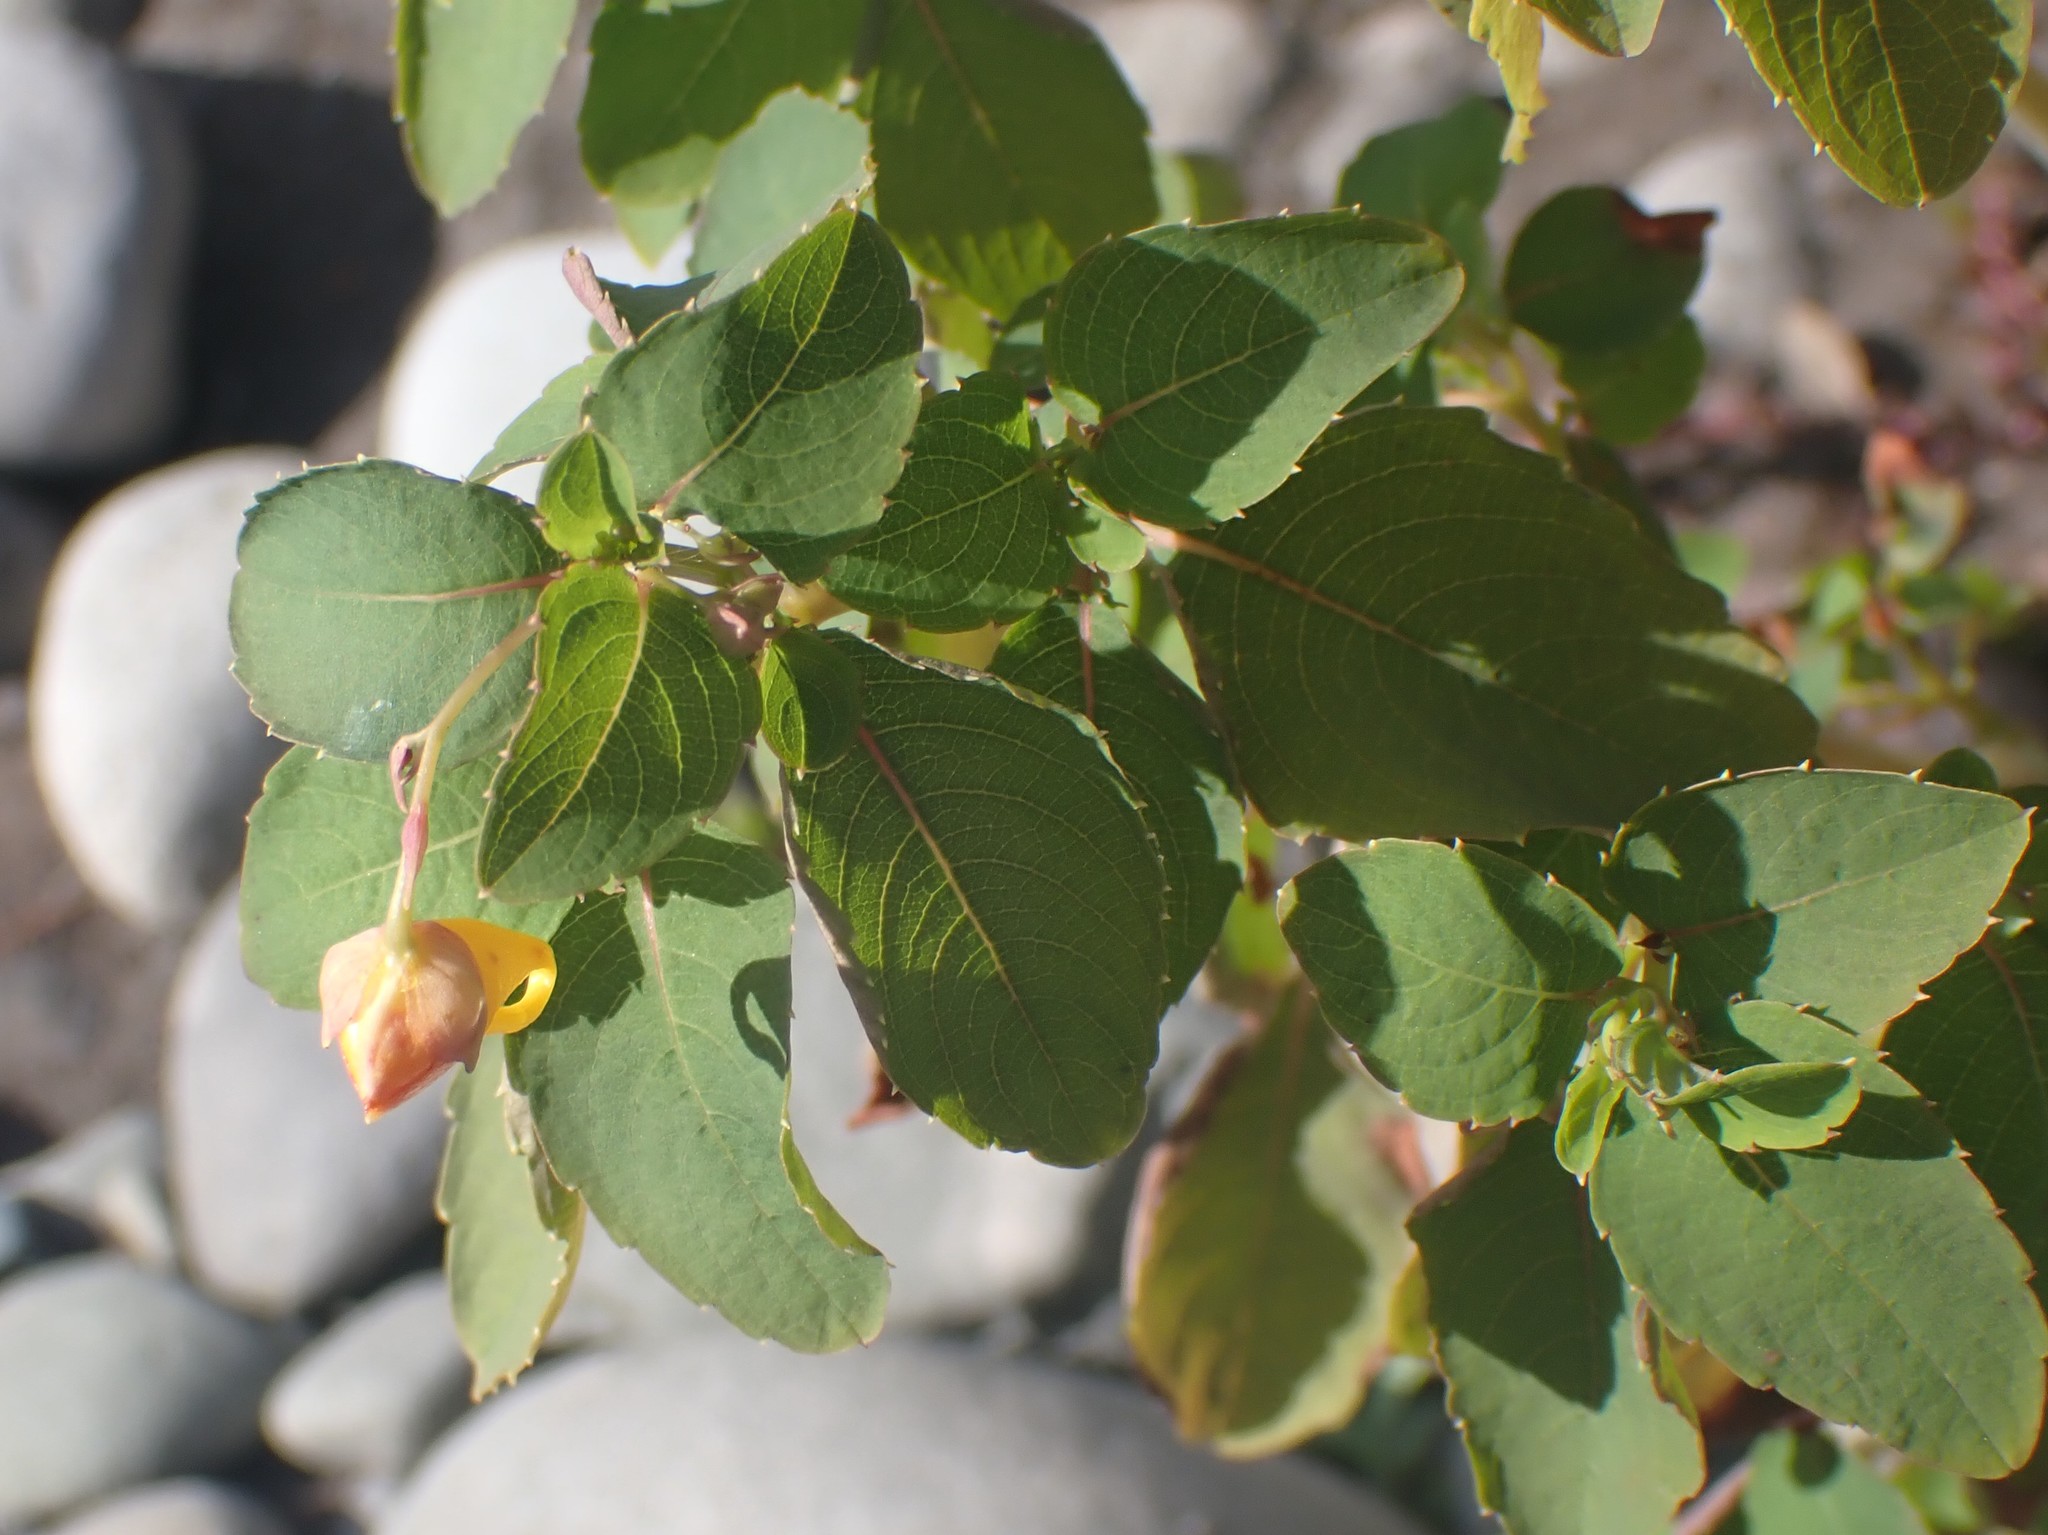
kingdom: Plantae
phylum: Tracheophyta
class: Magnoliopsida
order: Ericales
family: Balsaminaceae
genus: Impatiens
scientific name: Impatiens capensis
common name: Orange balsam
